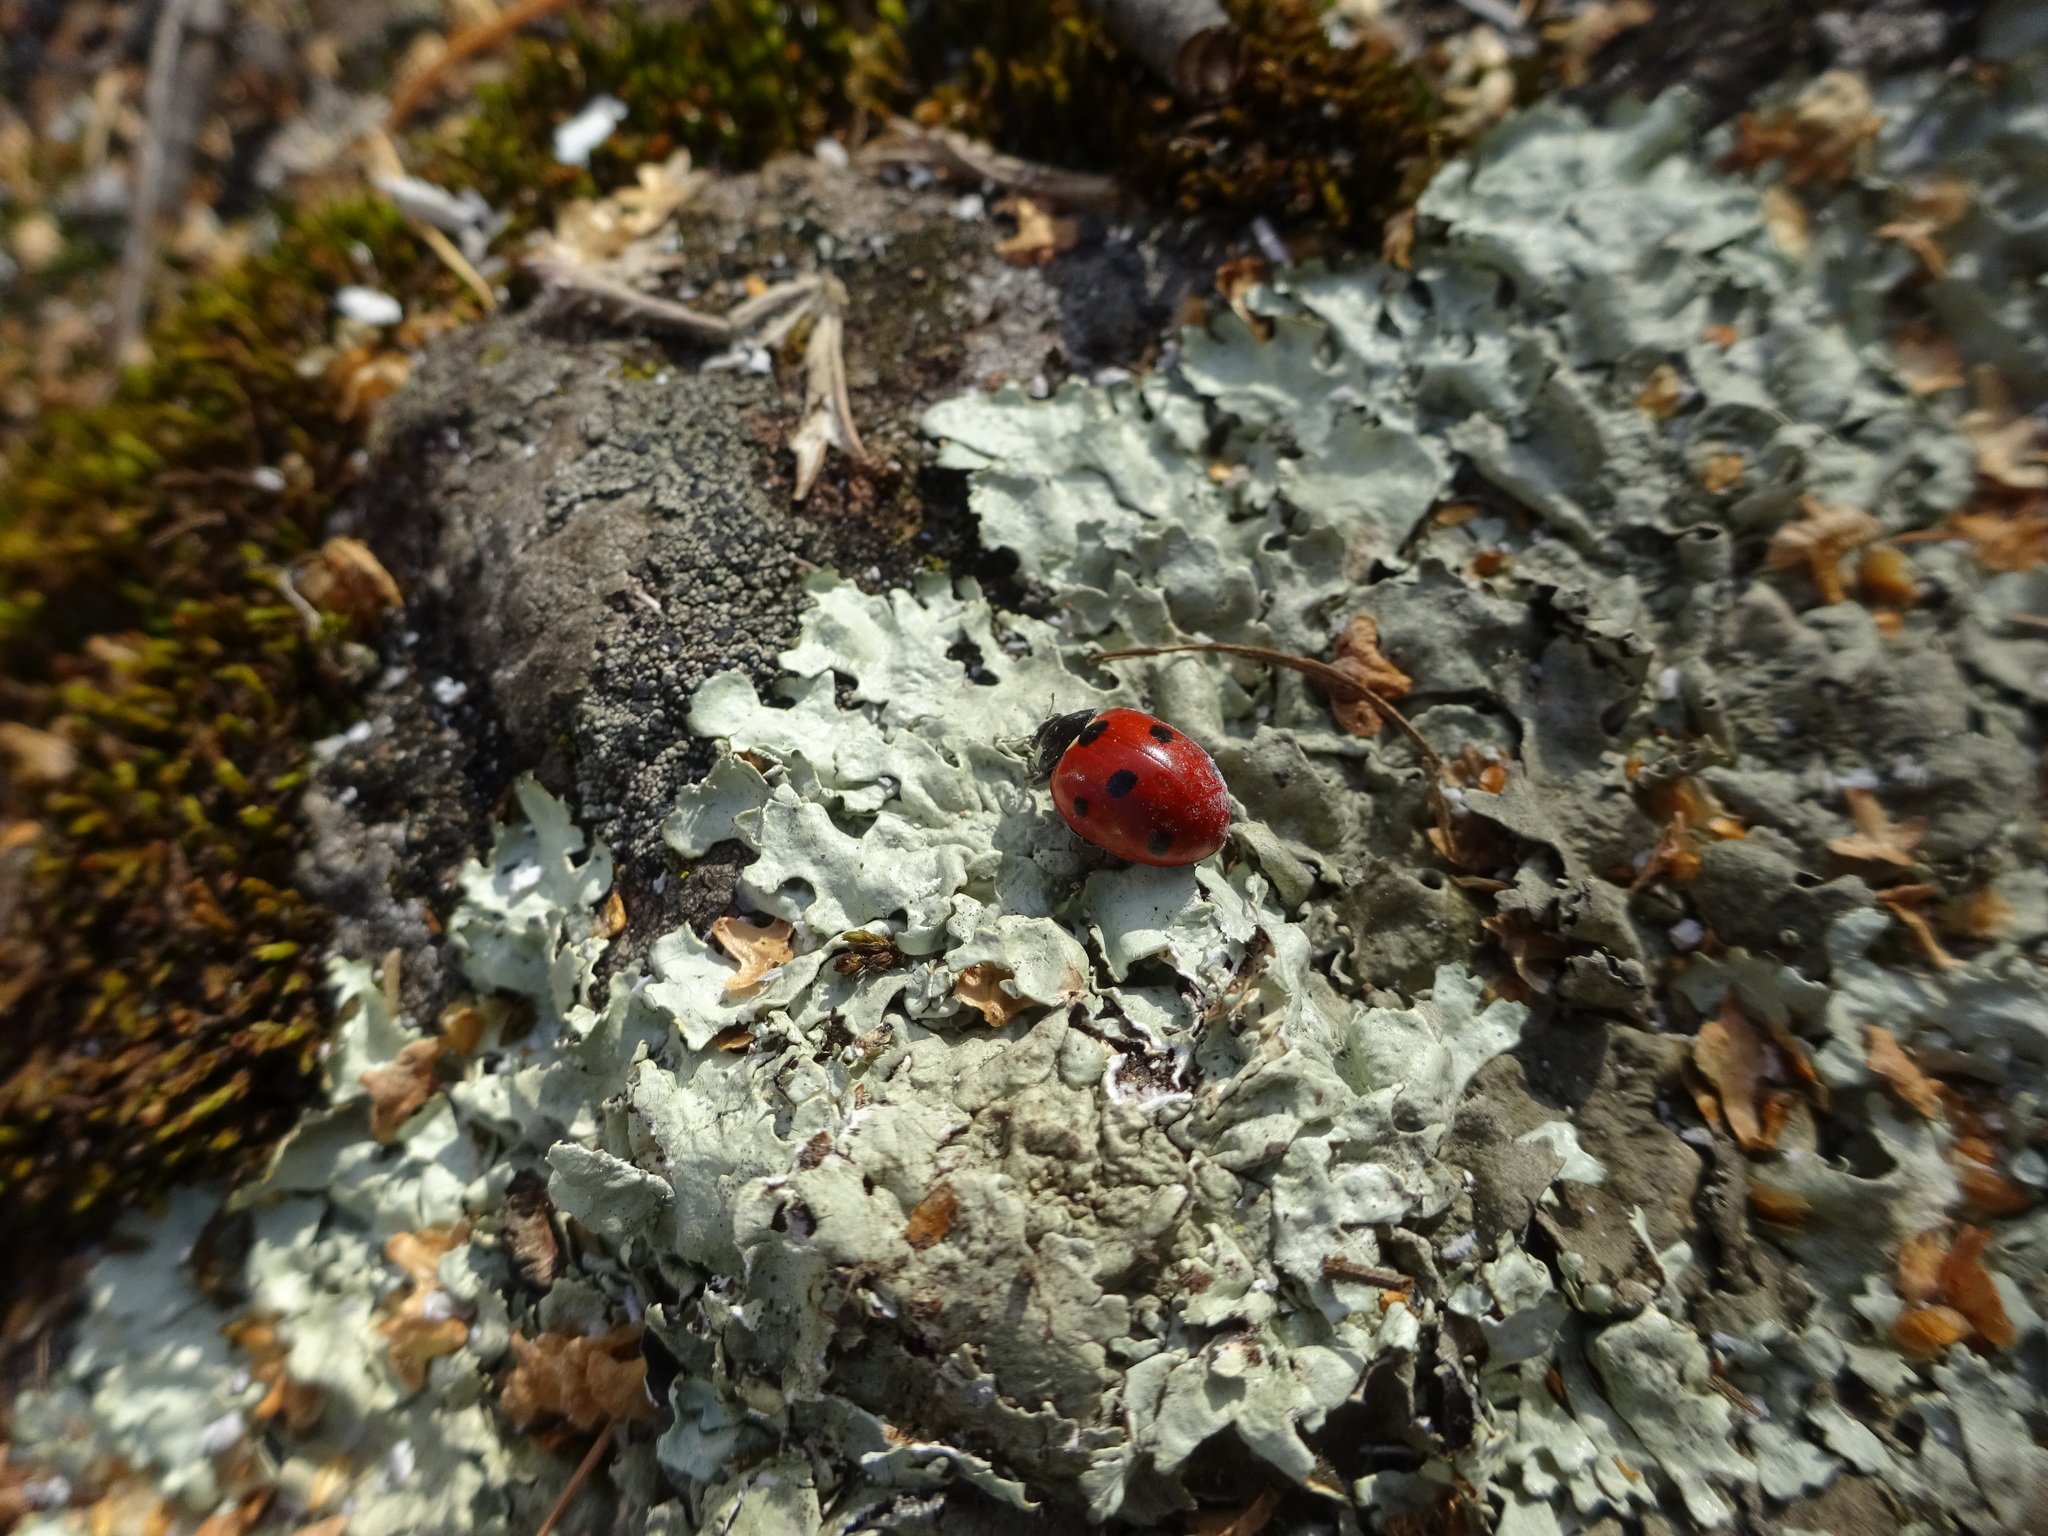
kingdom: Animalia
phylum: Arthropoda
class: Insecta
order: Coleoptera
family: Coccinellidae
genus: Coccinella
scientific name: Coccinella septempunctata
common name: Sevenspotted lady beetle
